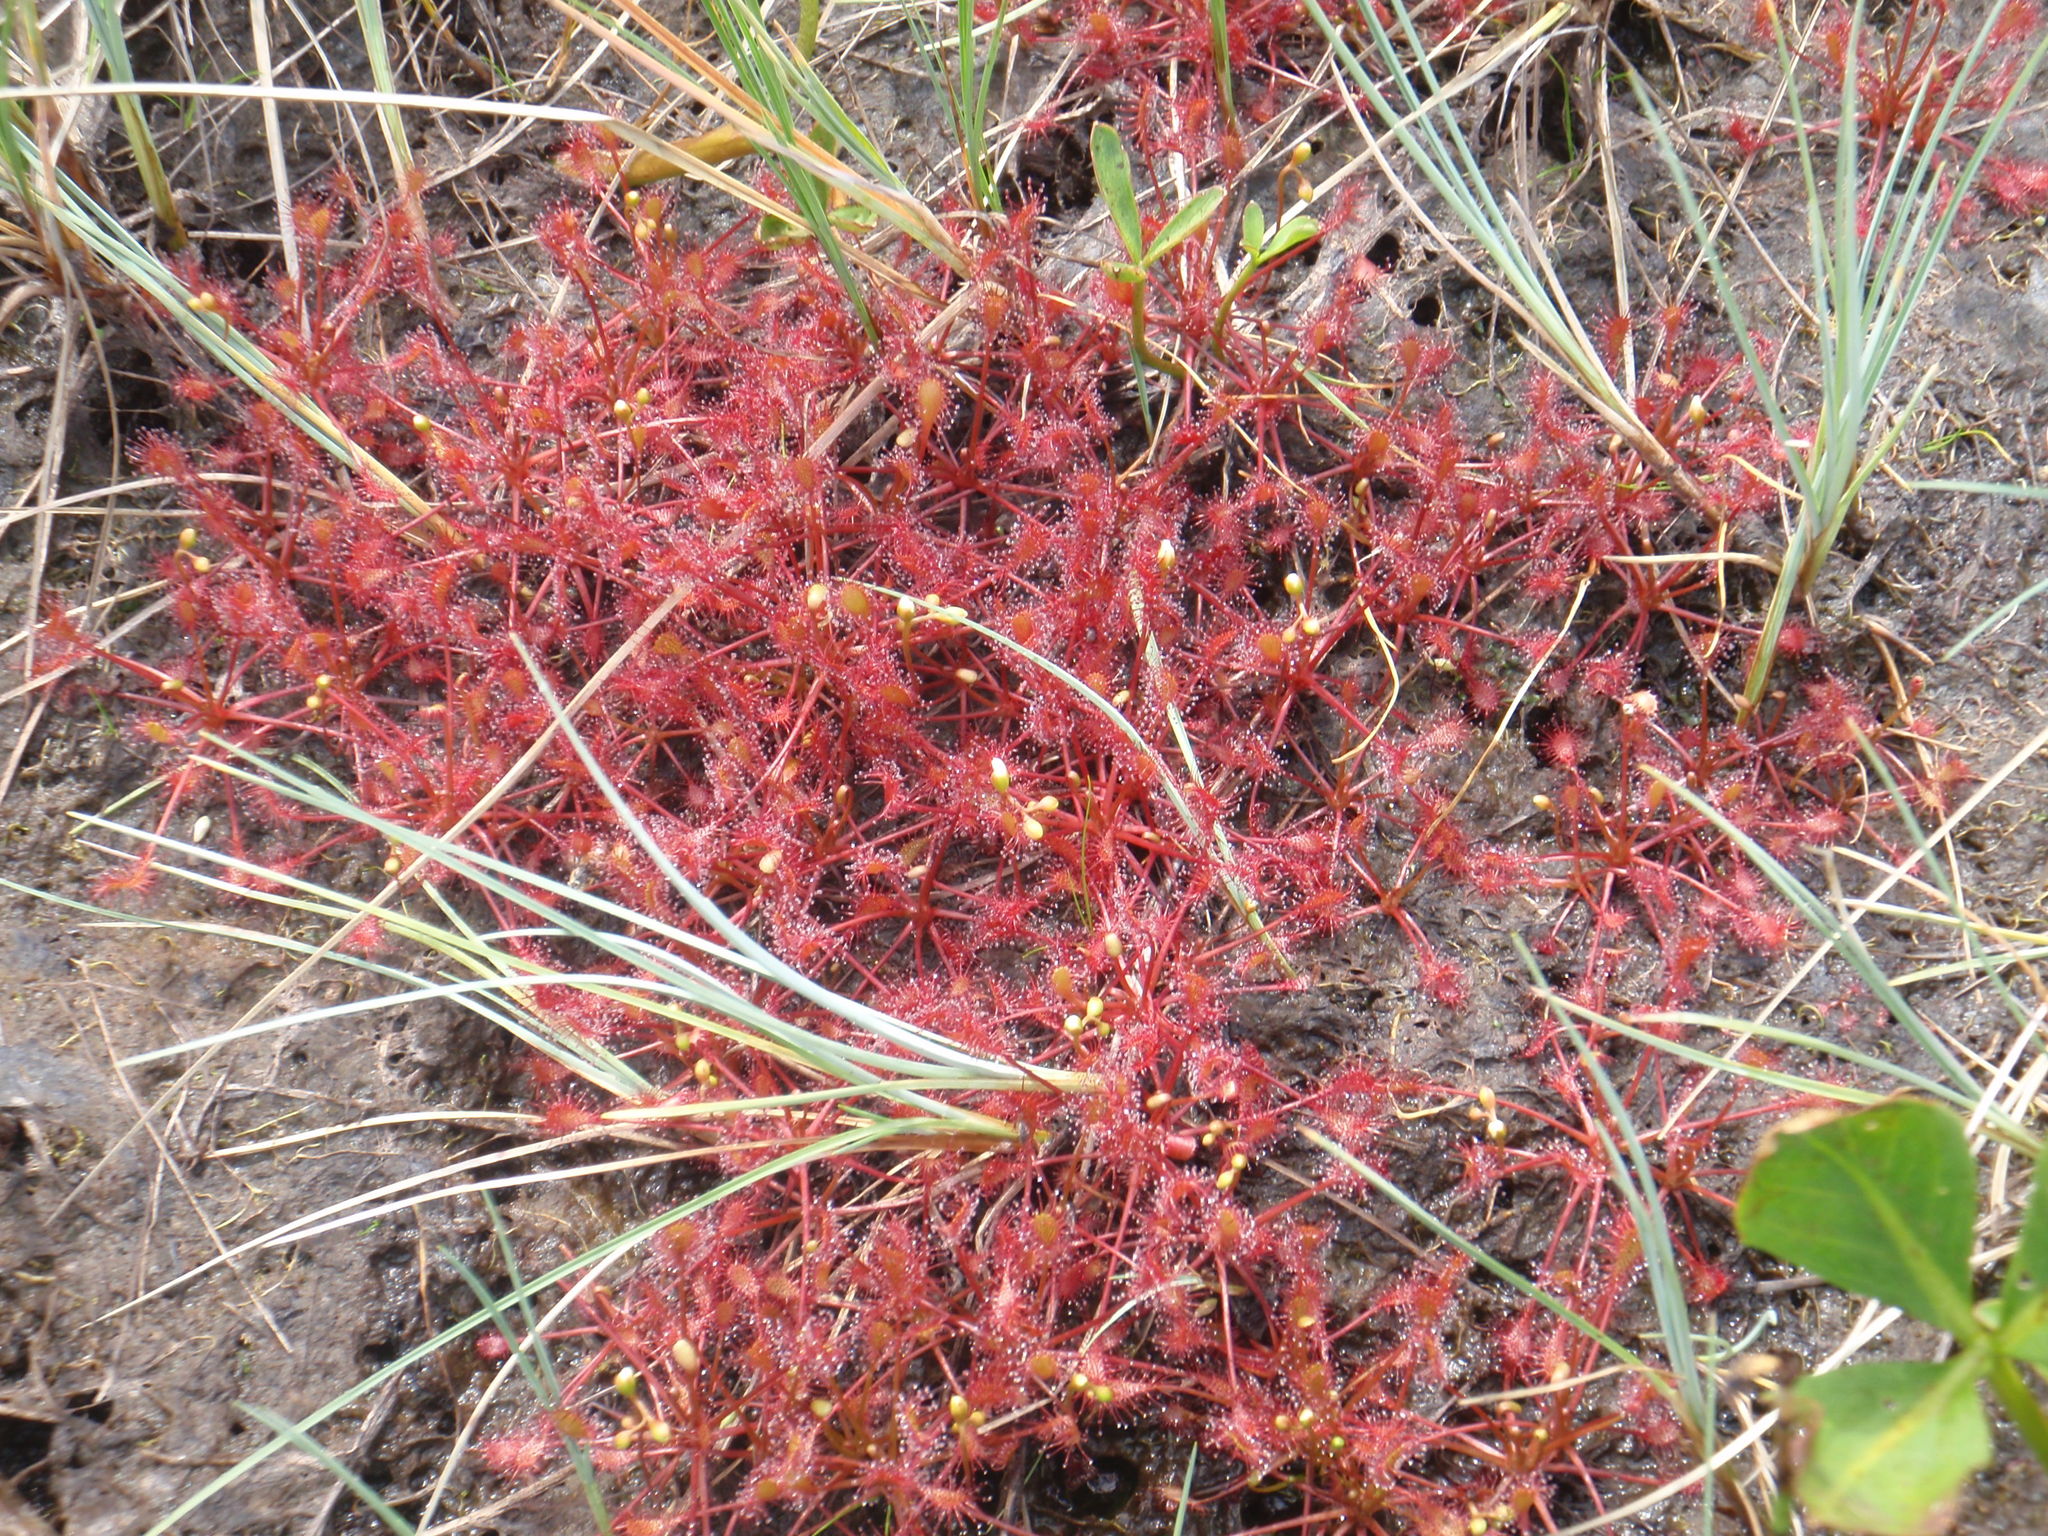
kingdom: Plantae
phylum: Tracheophyta
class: Magnoliopsida
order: Caryophyllales
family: Droseraceae
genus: Drosera
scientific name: Drosera intermedia
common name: Oblong-leaved sundew
